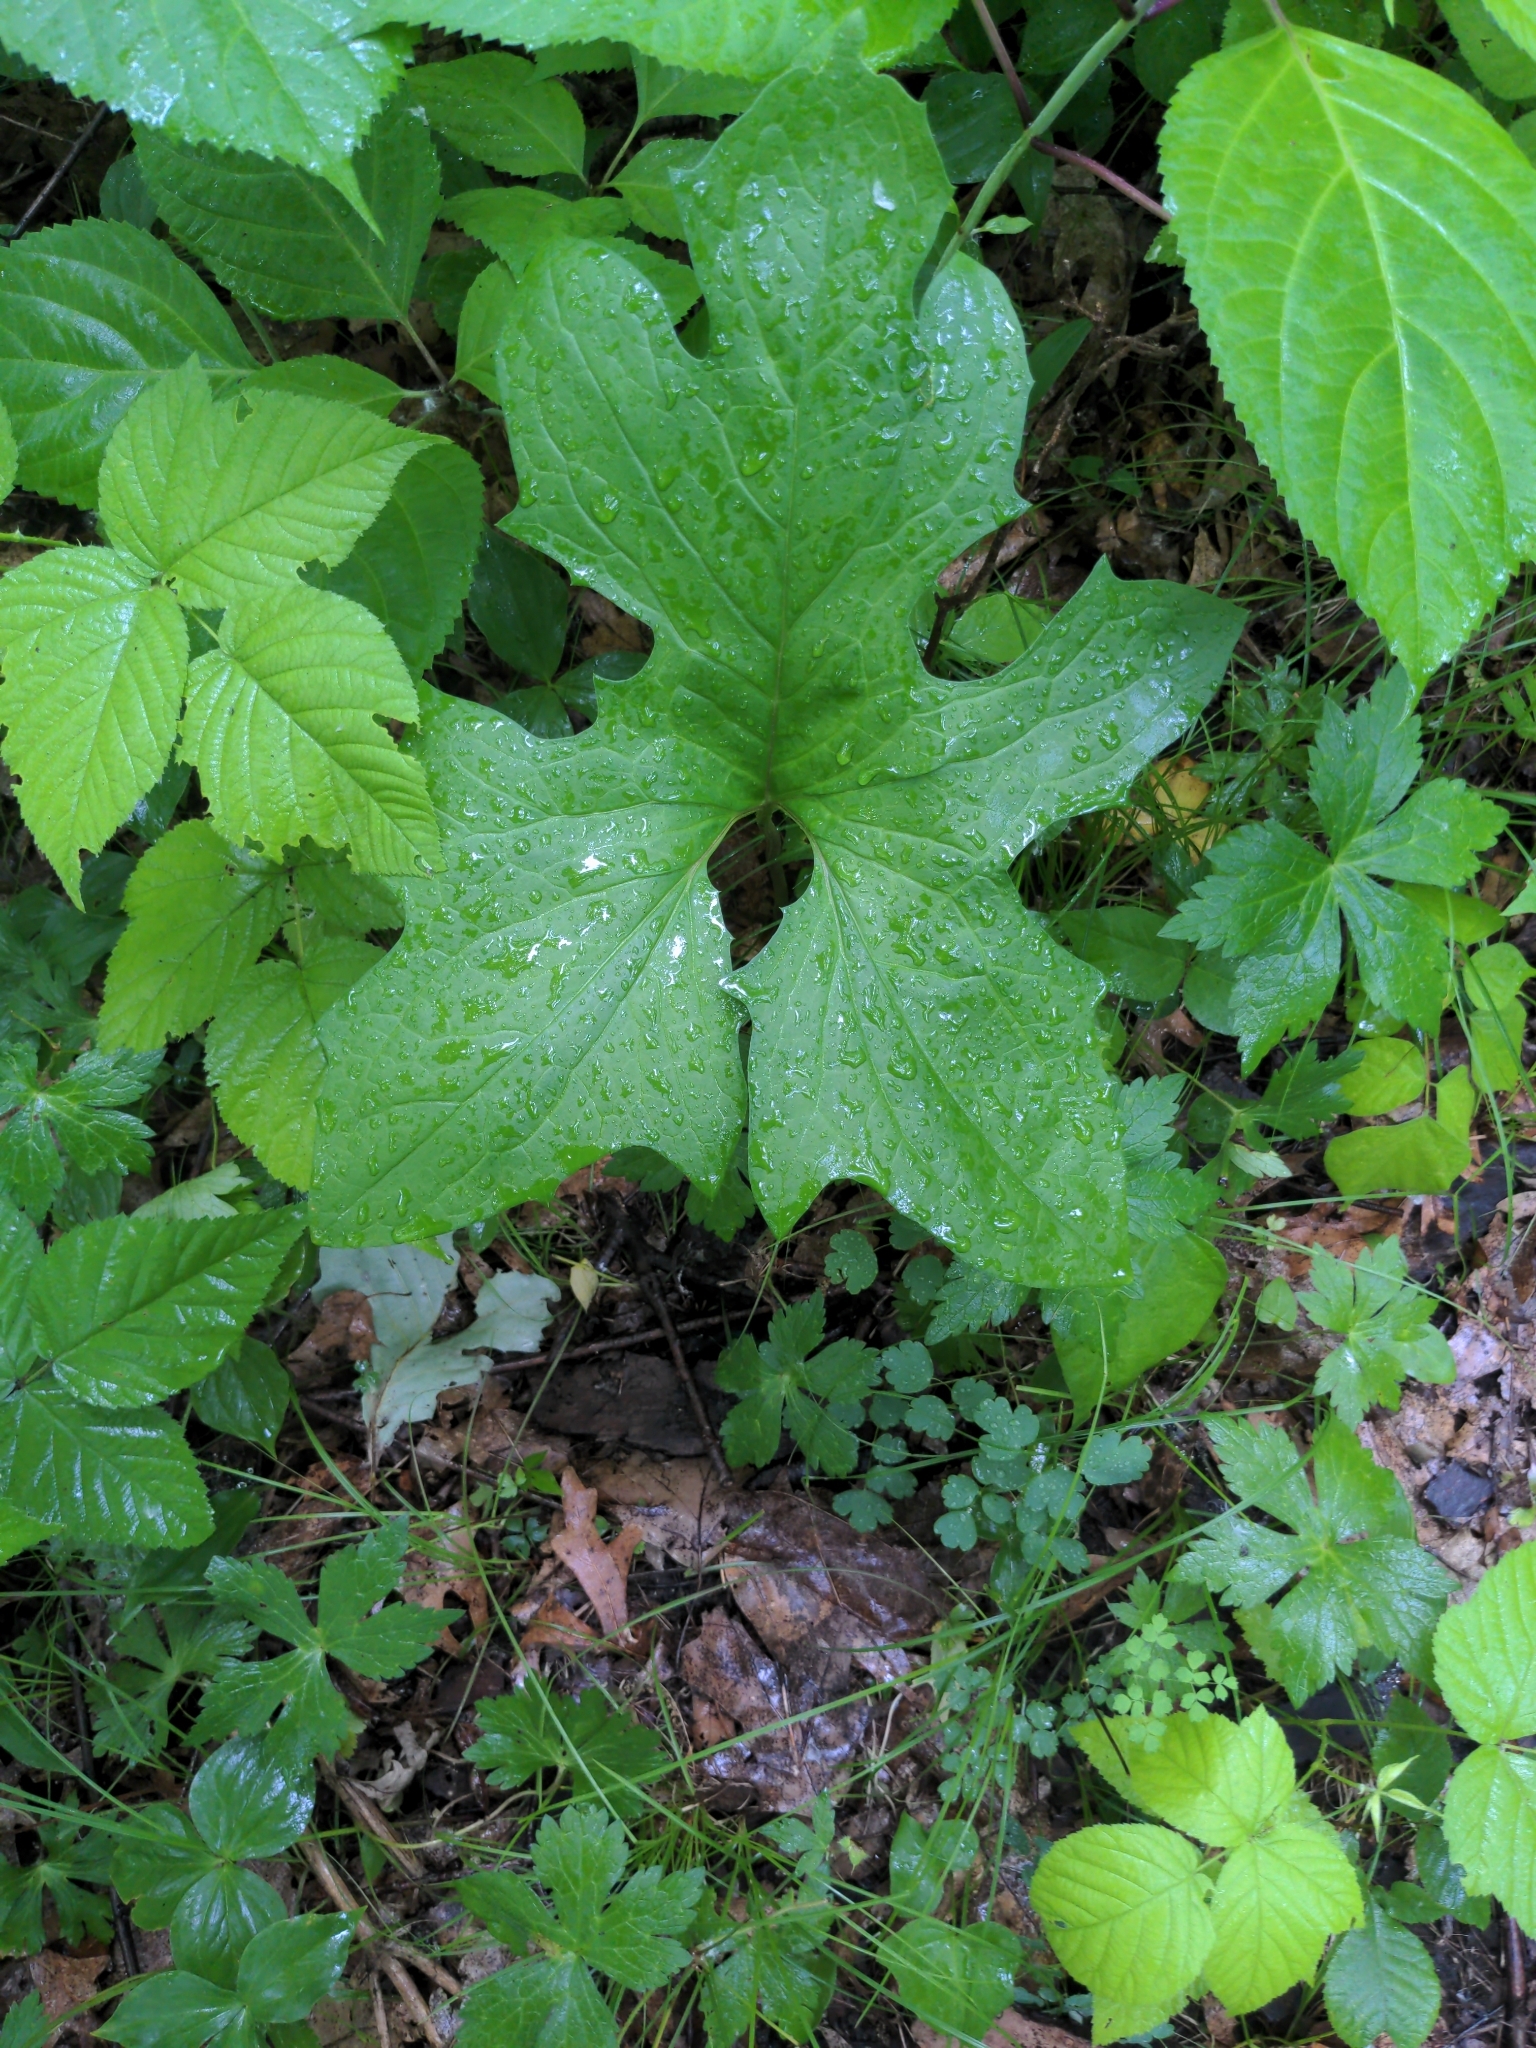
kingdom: Plantae
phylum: Tracheophyta
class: Magnoliopsida
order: Asterales
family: Asteraceae
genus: Nabalus
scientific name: Nabalus albus
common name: White rattlesnakeroot
